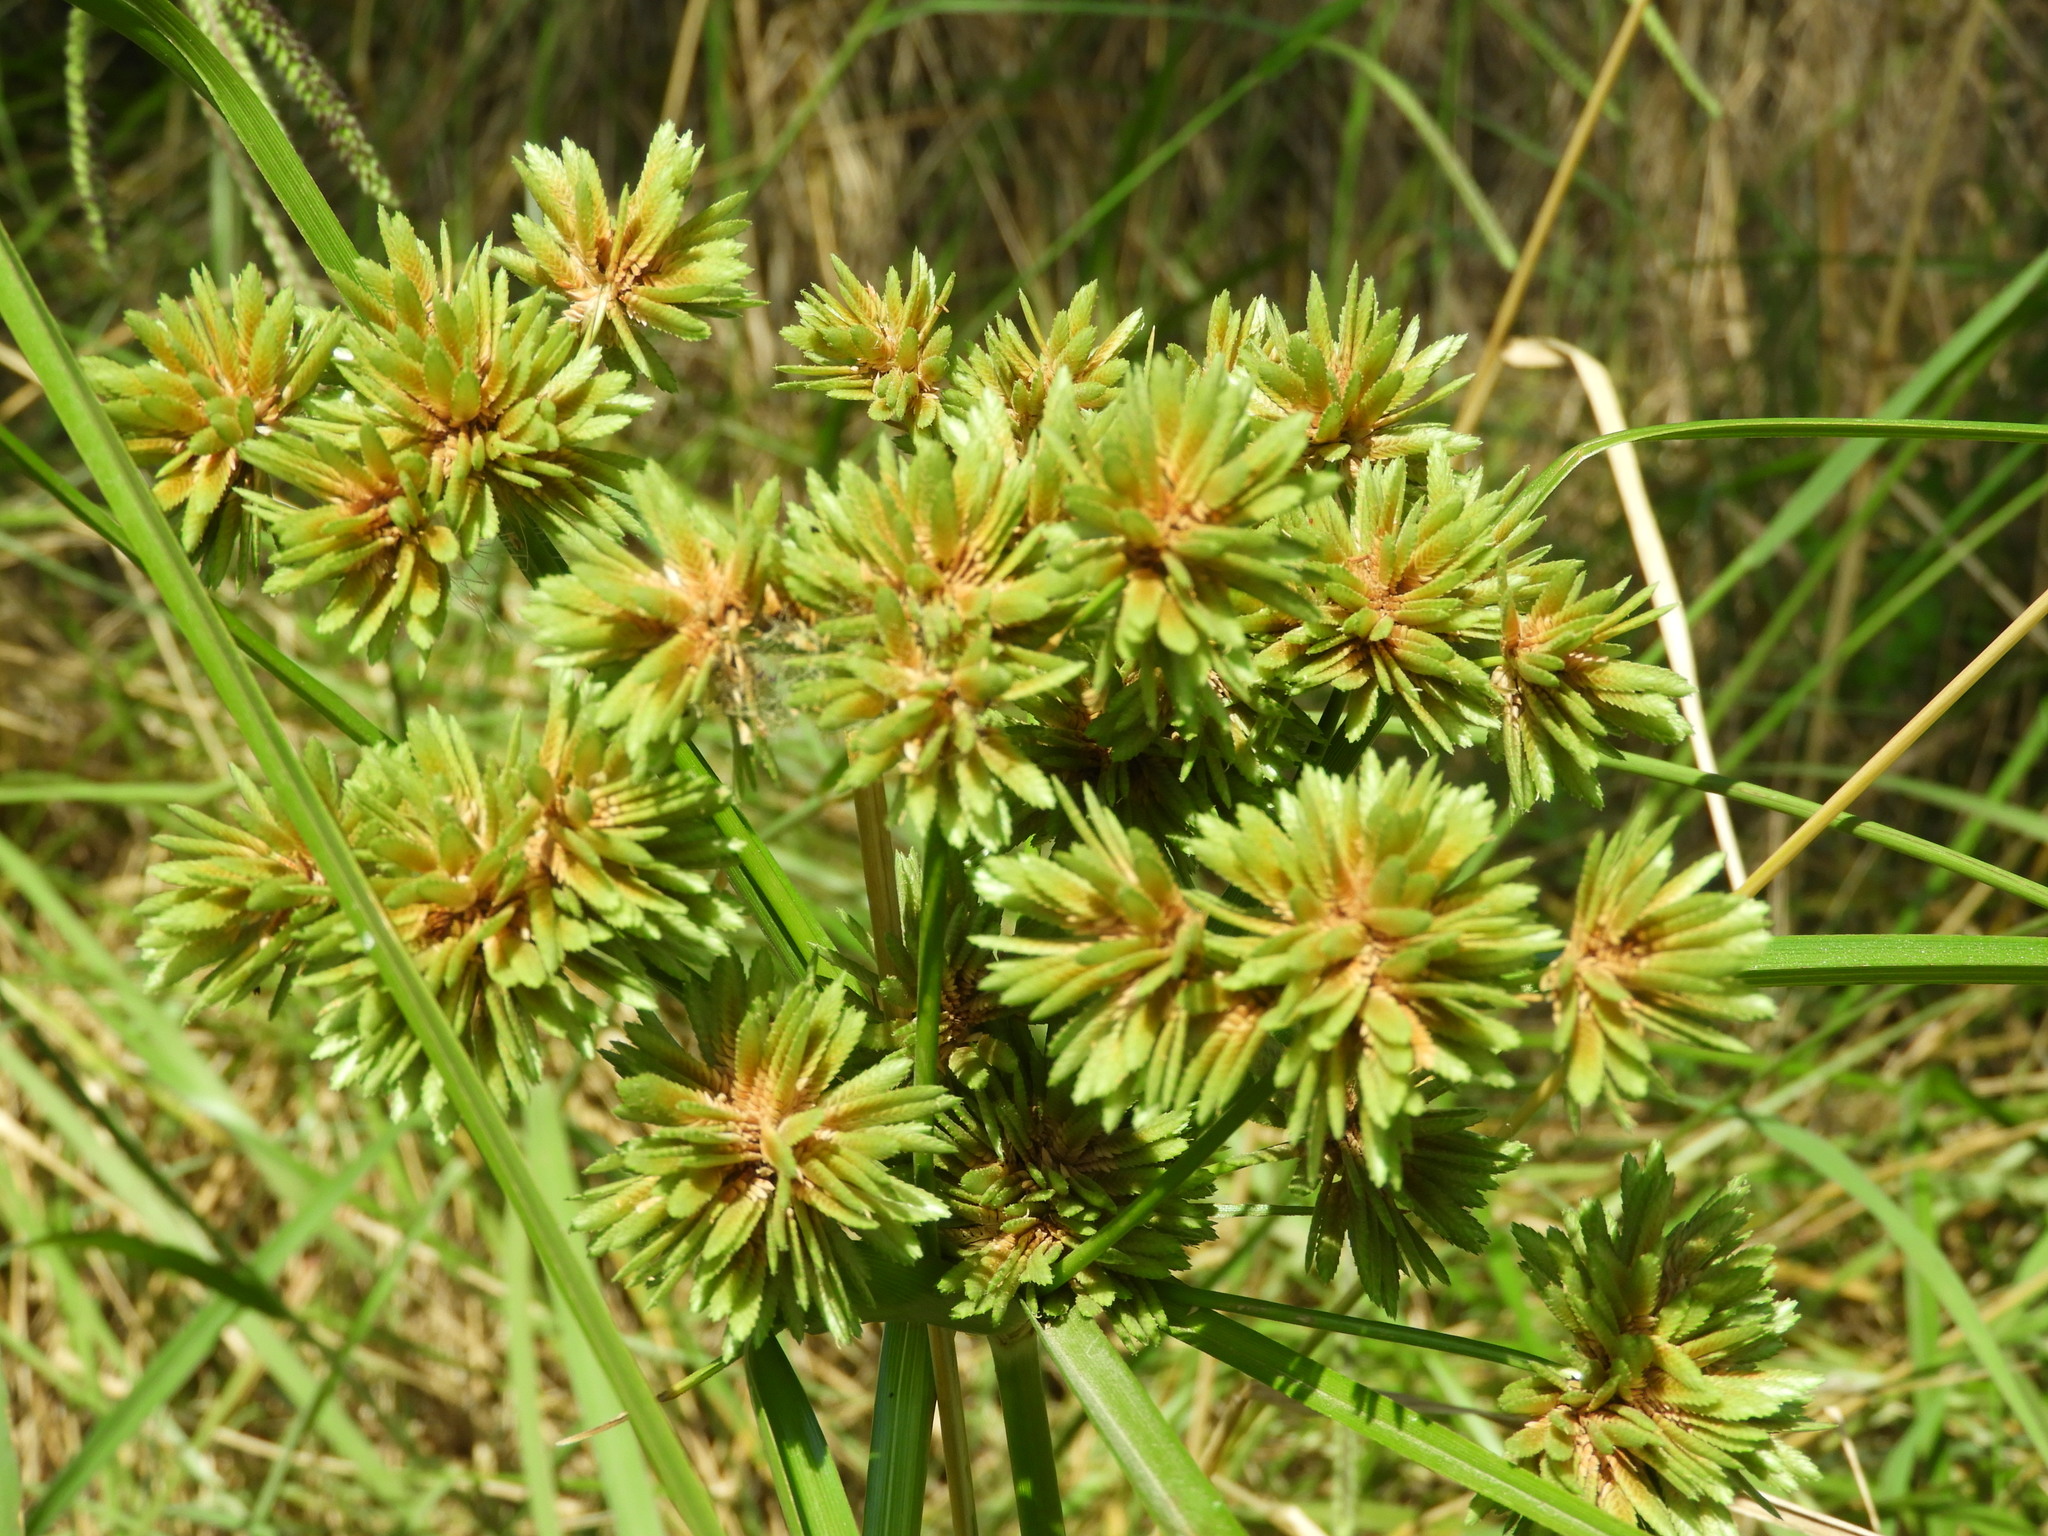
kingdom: Plantae
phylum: Tracheophyta
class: Liliopsida
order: Poales
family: Cyperaceae
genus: Cyperus
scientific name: Cyperus eragrostis
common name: Tall flatsedge
